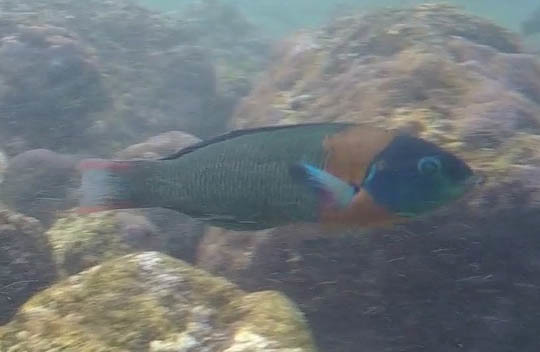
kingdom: Animalia
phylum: Chordata
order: Perciformes
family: Labridae
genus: Thalassoma
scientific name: Thalassoma duperrey
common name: Saddle wrasse
